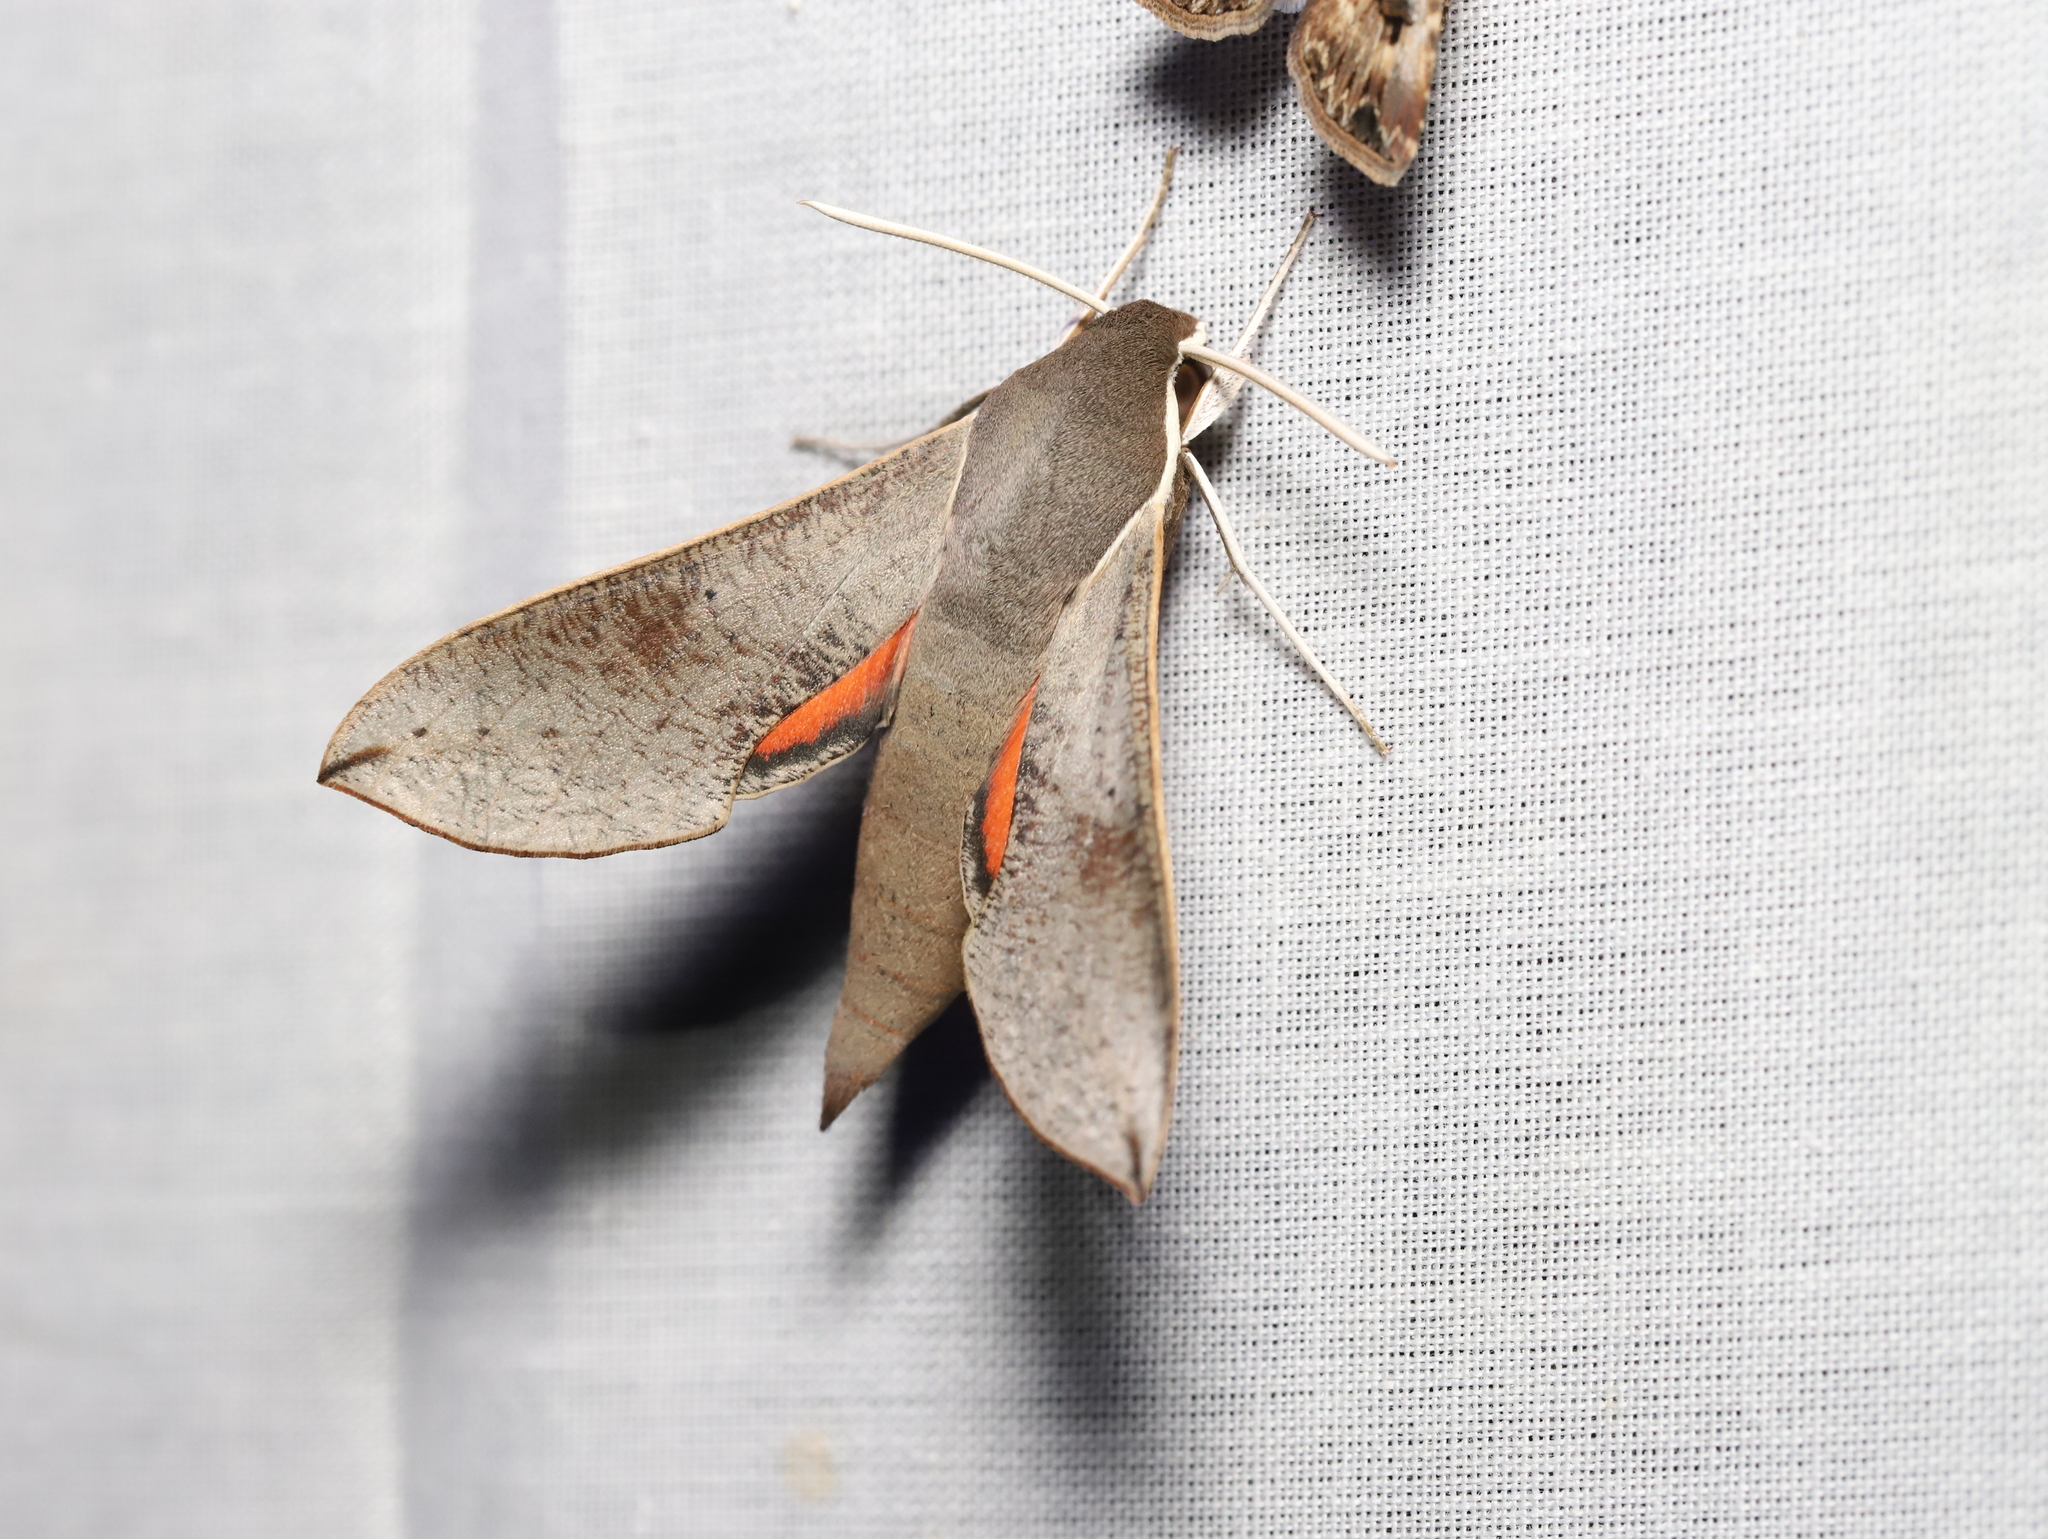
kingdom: Animalia
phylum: Arthropoda
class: Insecta
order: Lepidoptera
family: Sphingidae
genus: Hippotion
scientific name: Hippotion scrofa
